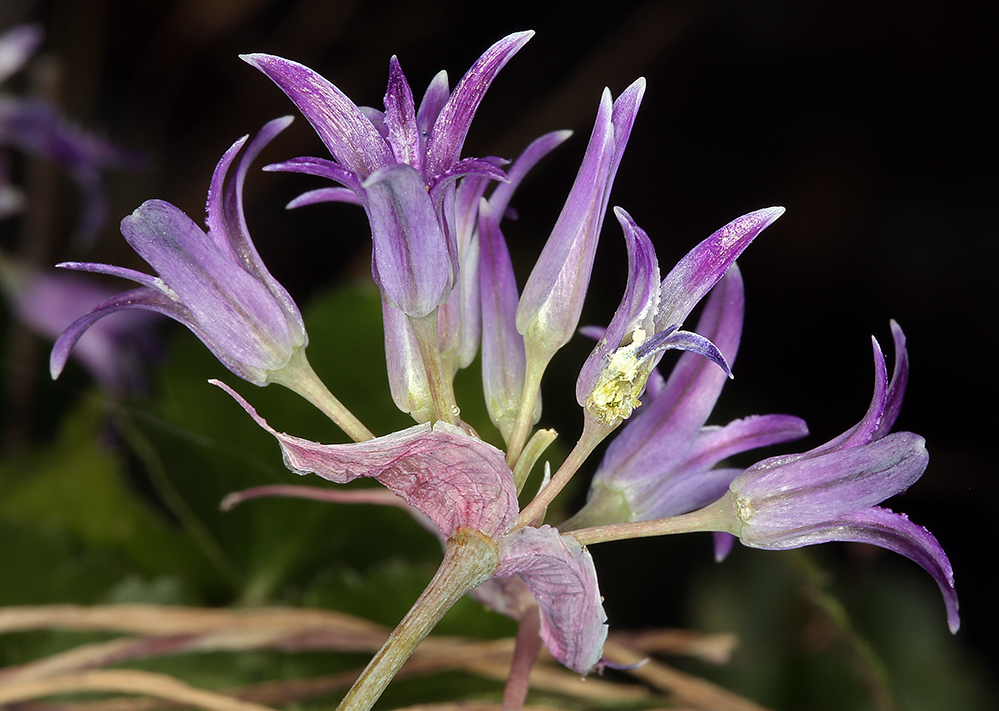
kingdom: Plantae
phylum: Tracheophyta
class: Liliopsida
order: Asparagales
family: Amaryllidaceae
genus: Allium
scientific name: Allium abramsii
